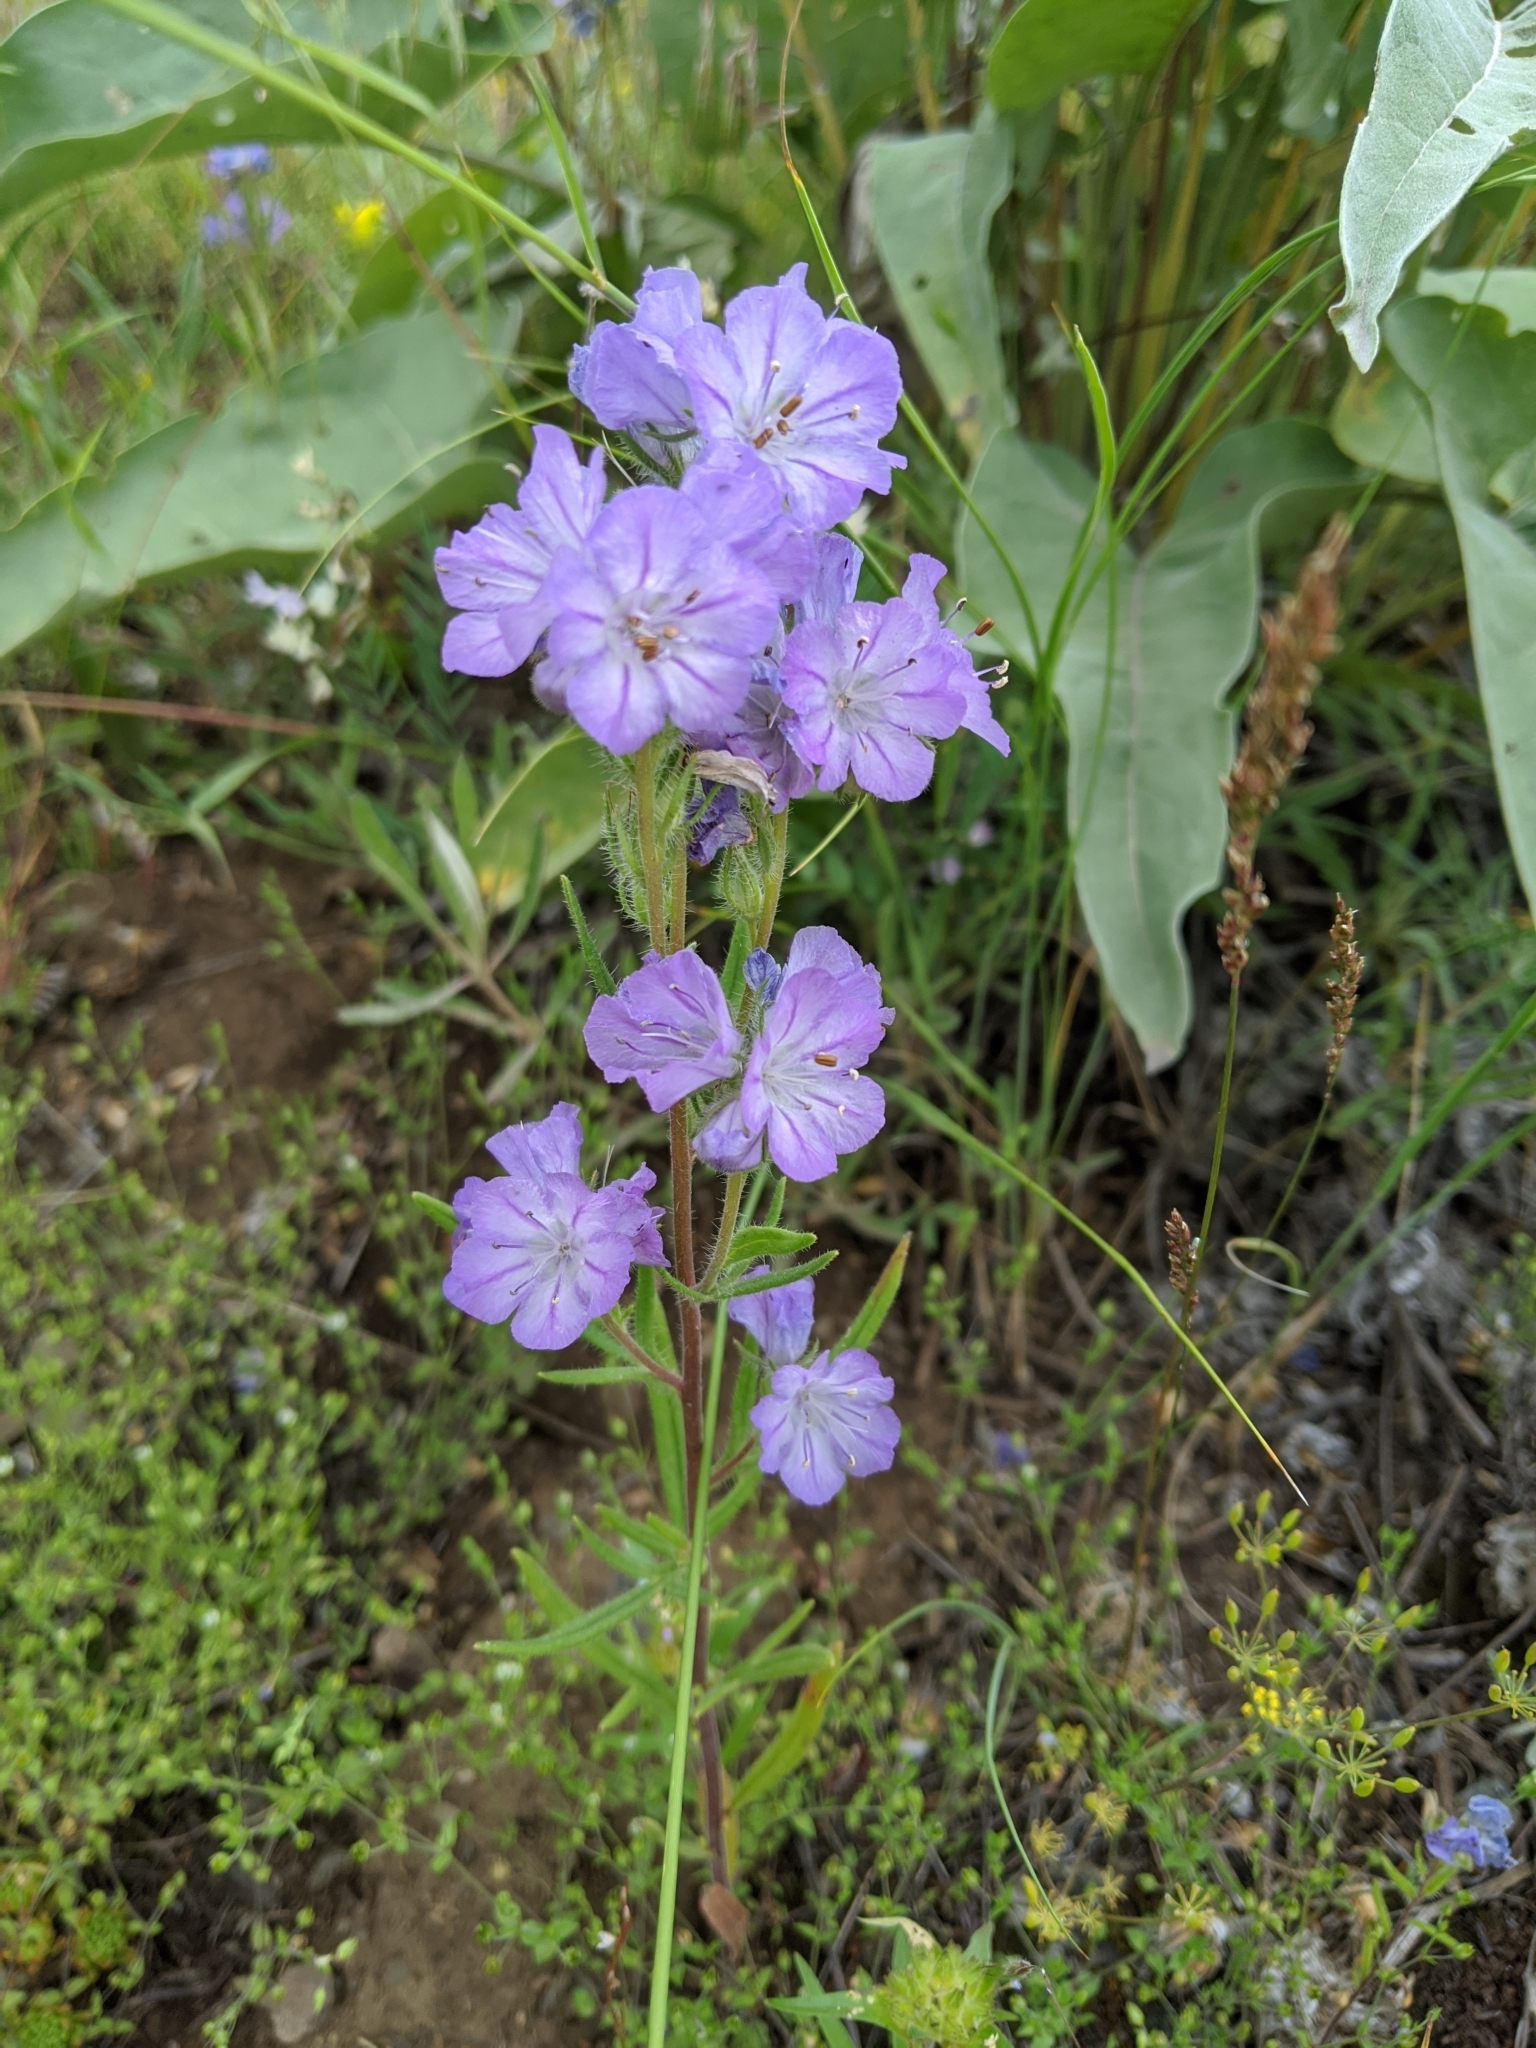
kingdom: Plantae
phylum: Tracheophyta
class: Magnoliopsida
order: Boraginales
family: Hydrophyllaceae
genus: Phacelia
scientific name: Phacelia linearis
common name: Linear-leaved phacelia
